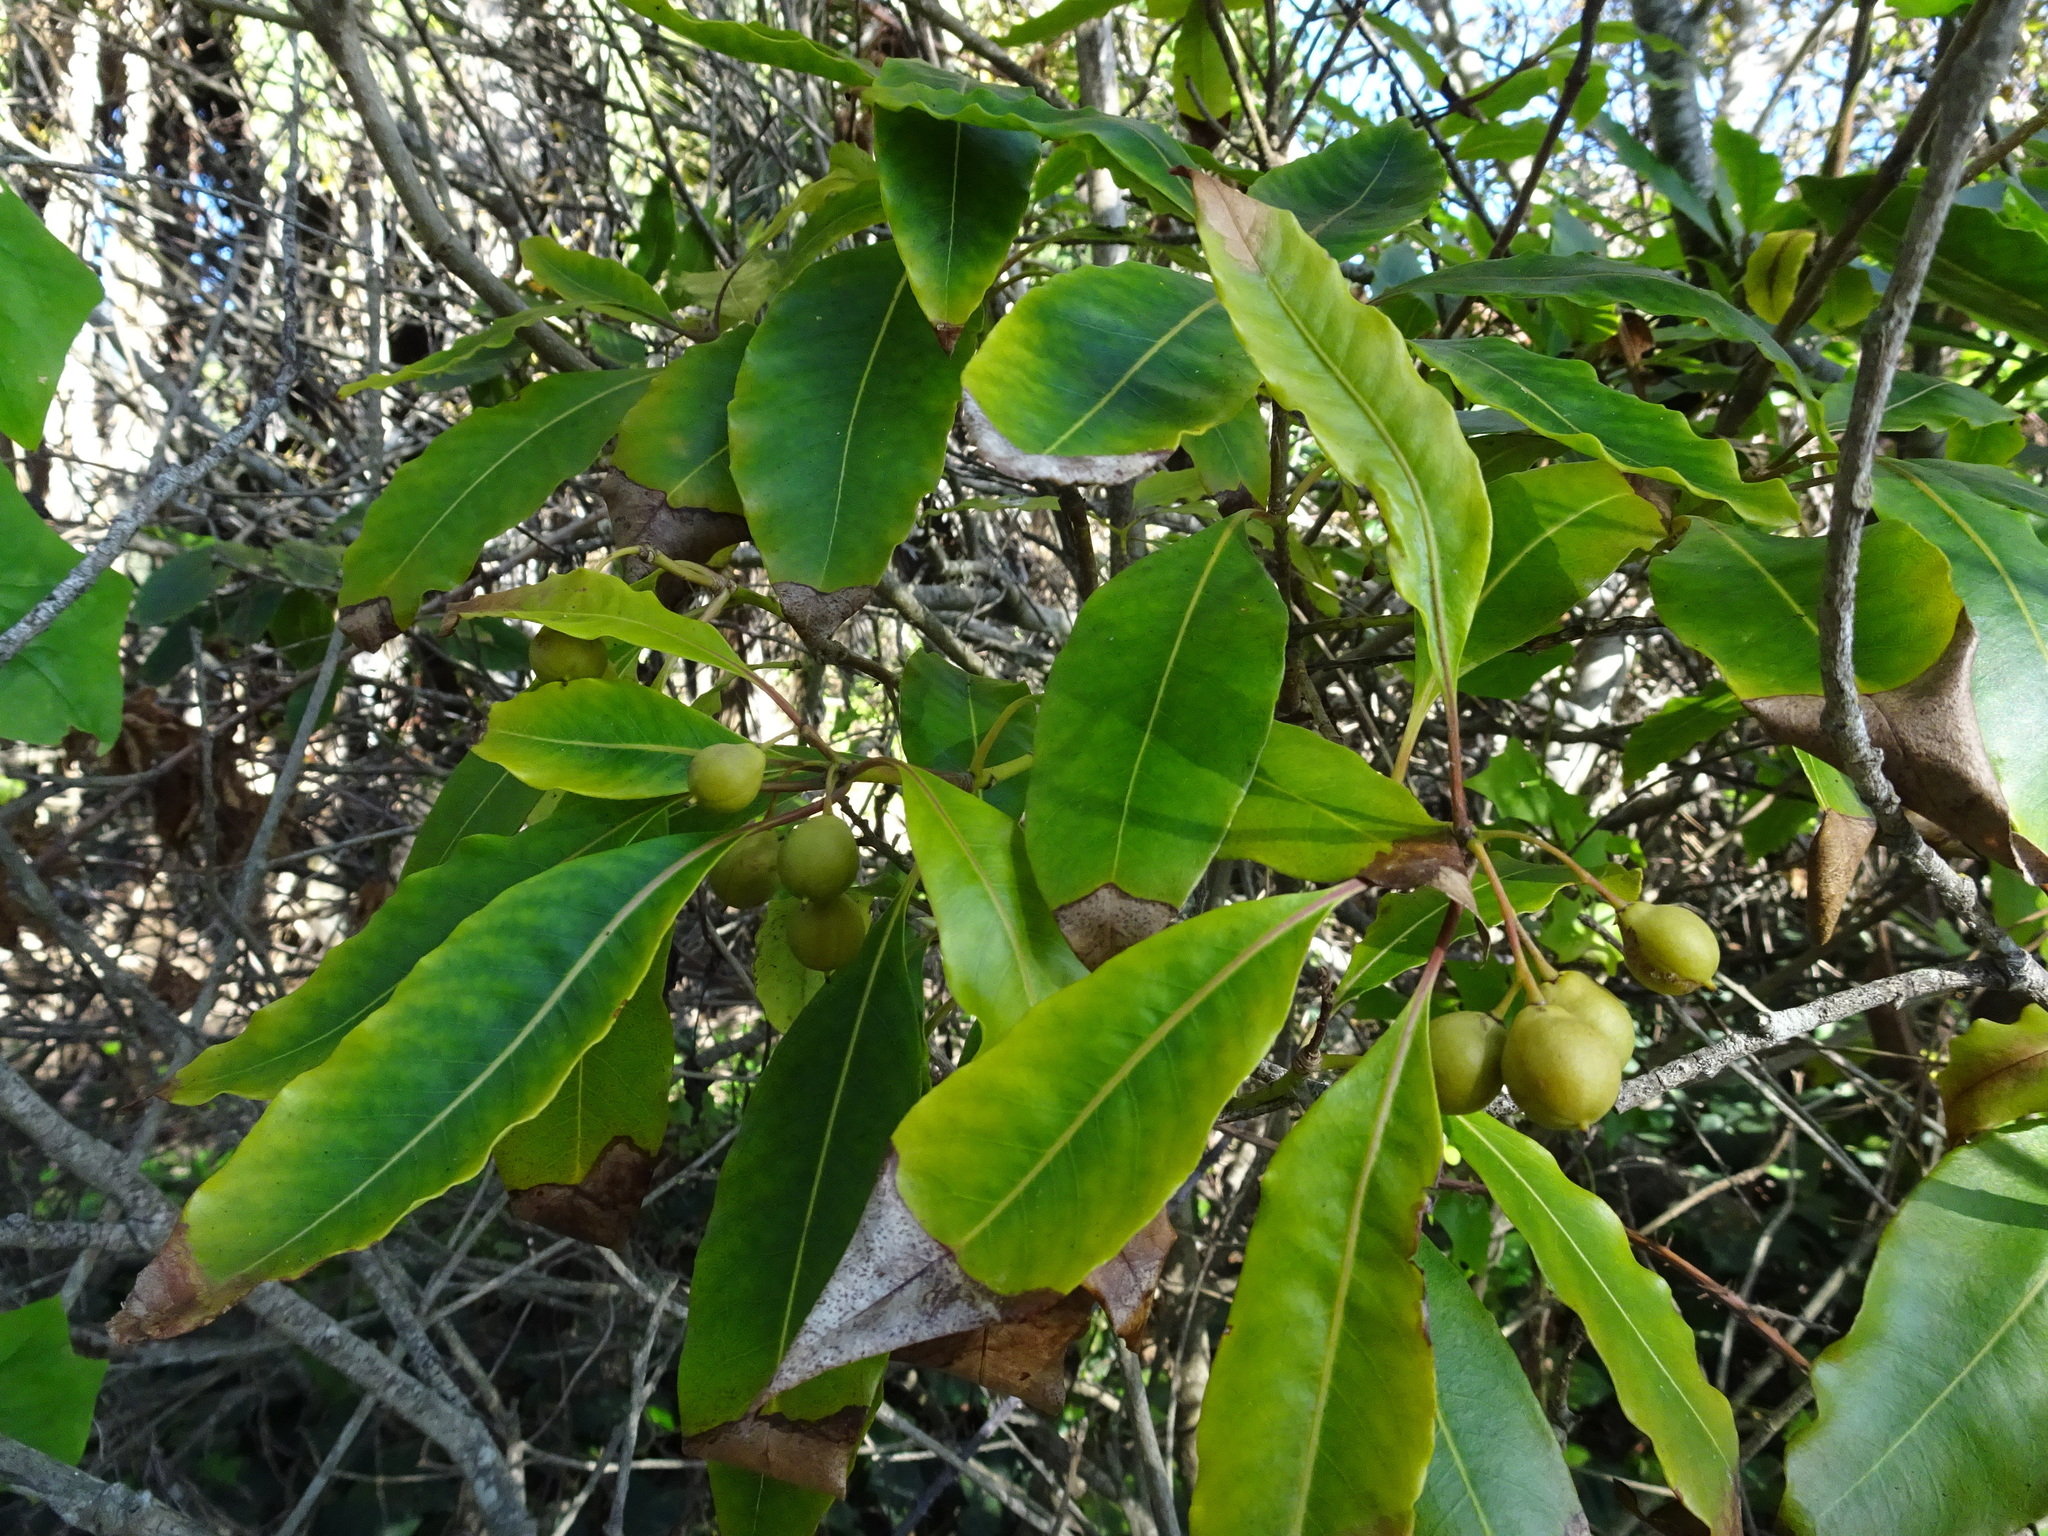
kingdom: Plantae
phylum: Tracheophyta
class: Magnoliopsida
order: Apiales
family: Pittosporaceae
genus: Pittosporum
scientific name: Pittosporum undulatum
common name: Australian cheesewood
